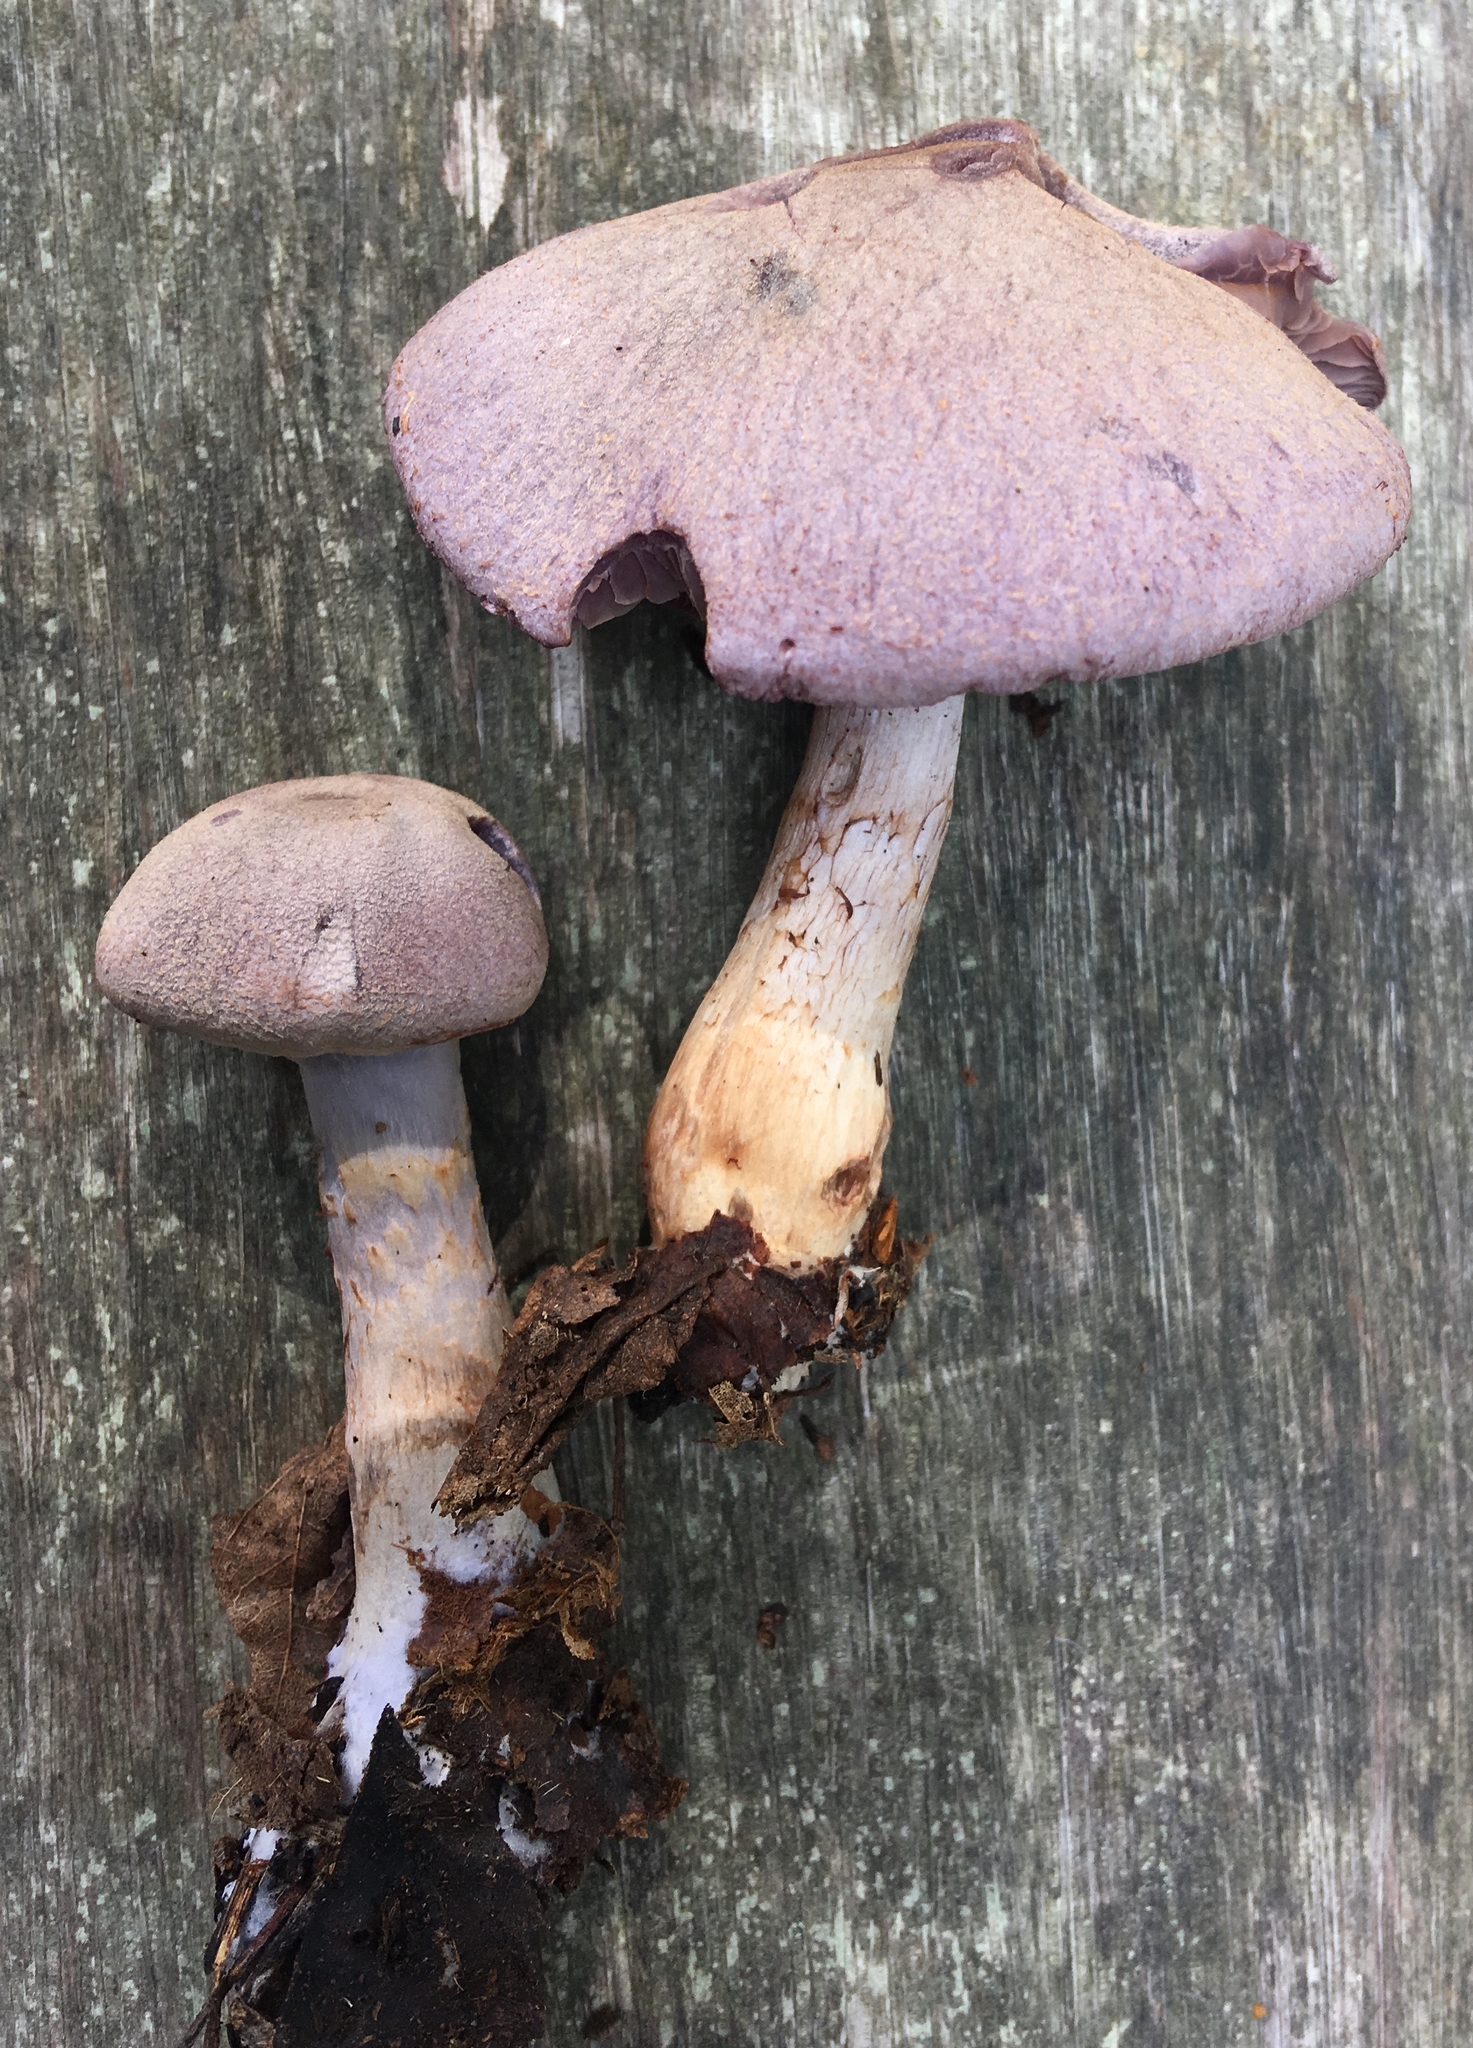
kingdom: Fungi
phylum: Basidiomycota
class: Agaricomycetes
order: Agaricales
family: Cortinariaceae
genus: Cortinarius
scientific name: Cortinarius deceptivus
